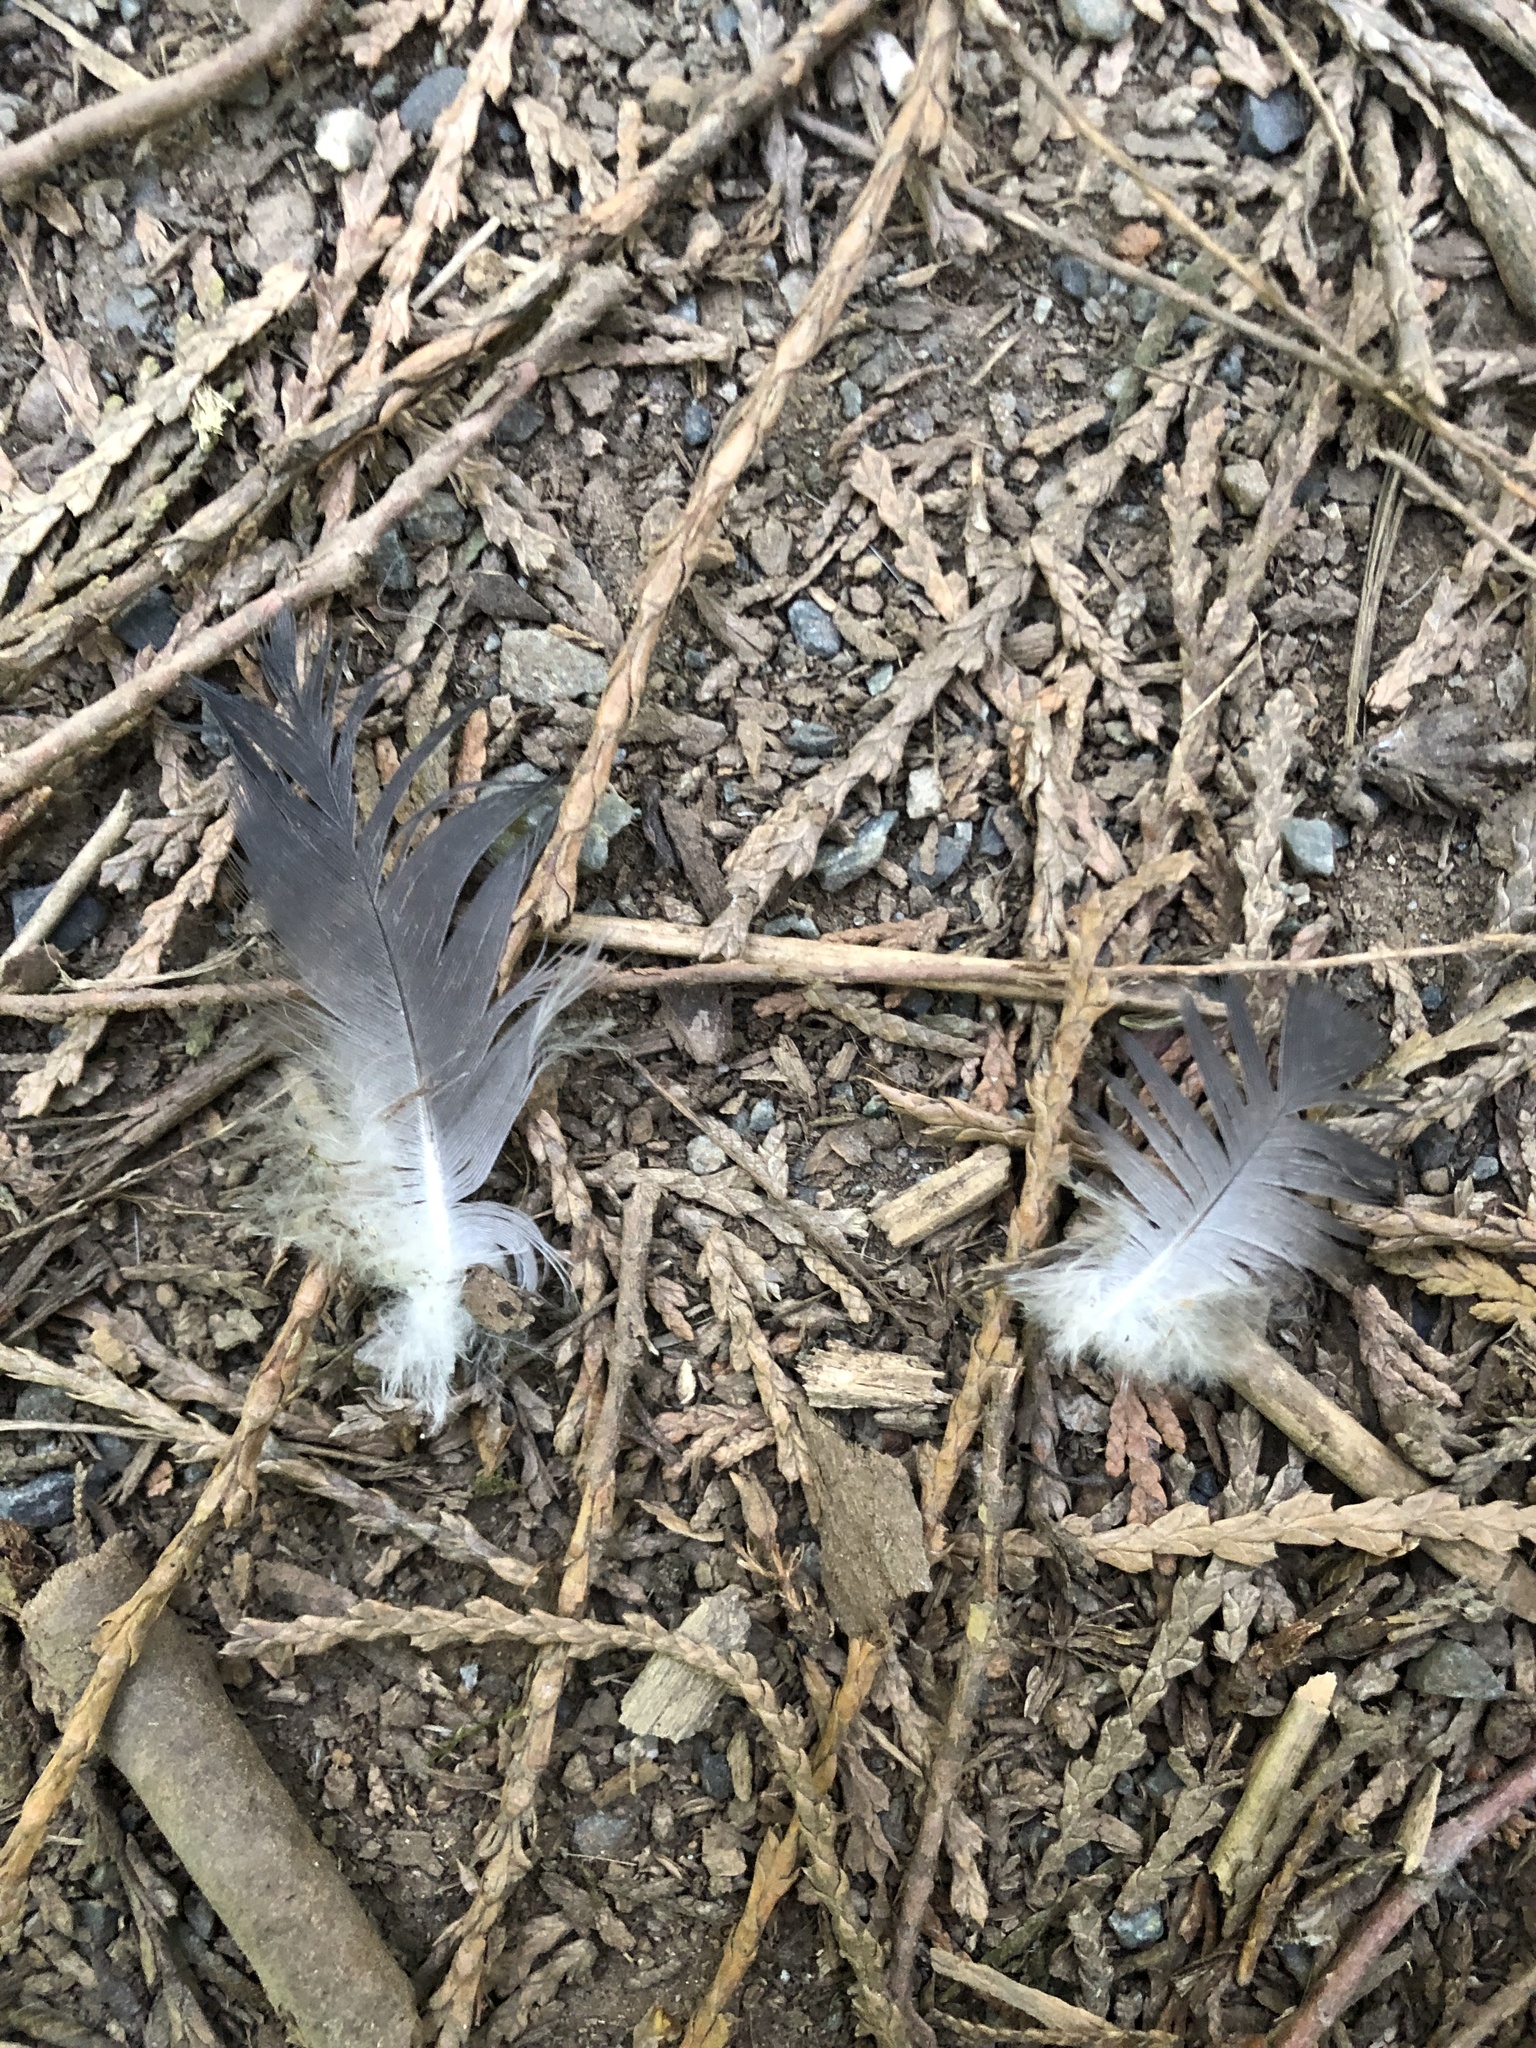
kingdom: Animalia
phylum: Chordata
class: Aves
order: Columbiformes
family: Columbidae
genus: Columba
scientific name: Columba livia
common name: Rock pigeon
